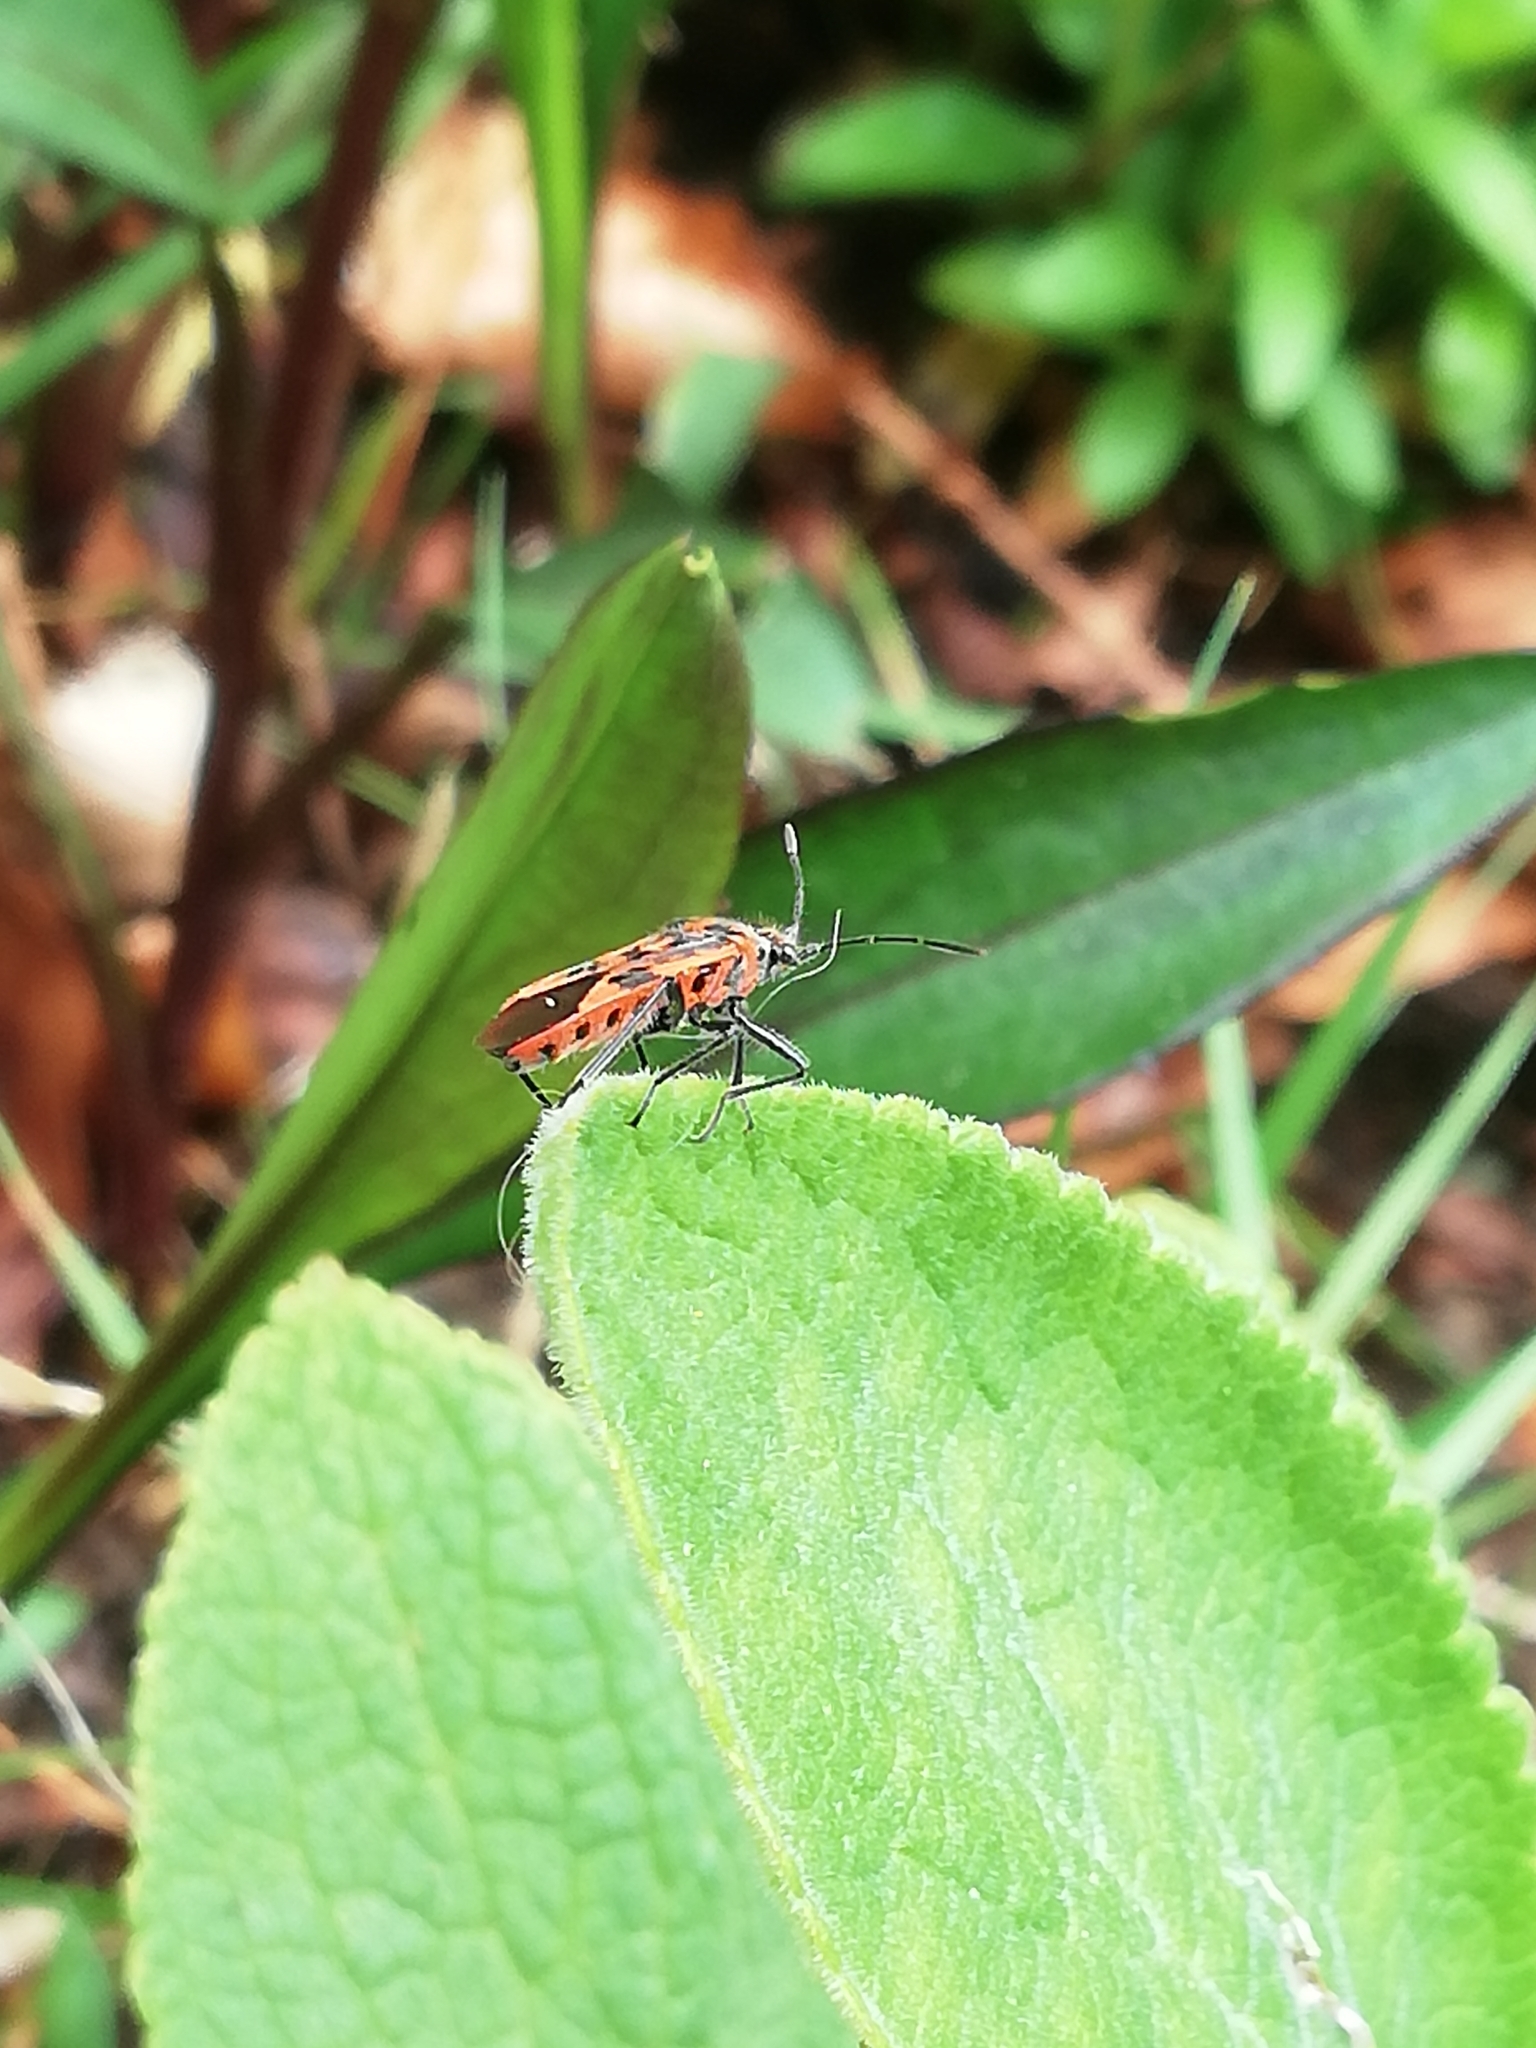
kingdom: Animalia
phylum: Arthropoda
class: Insecta
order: Hemiptera
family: Rhopalidae
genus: Corizus
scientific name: Corizus hyoscyami
